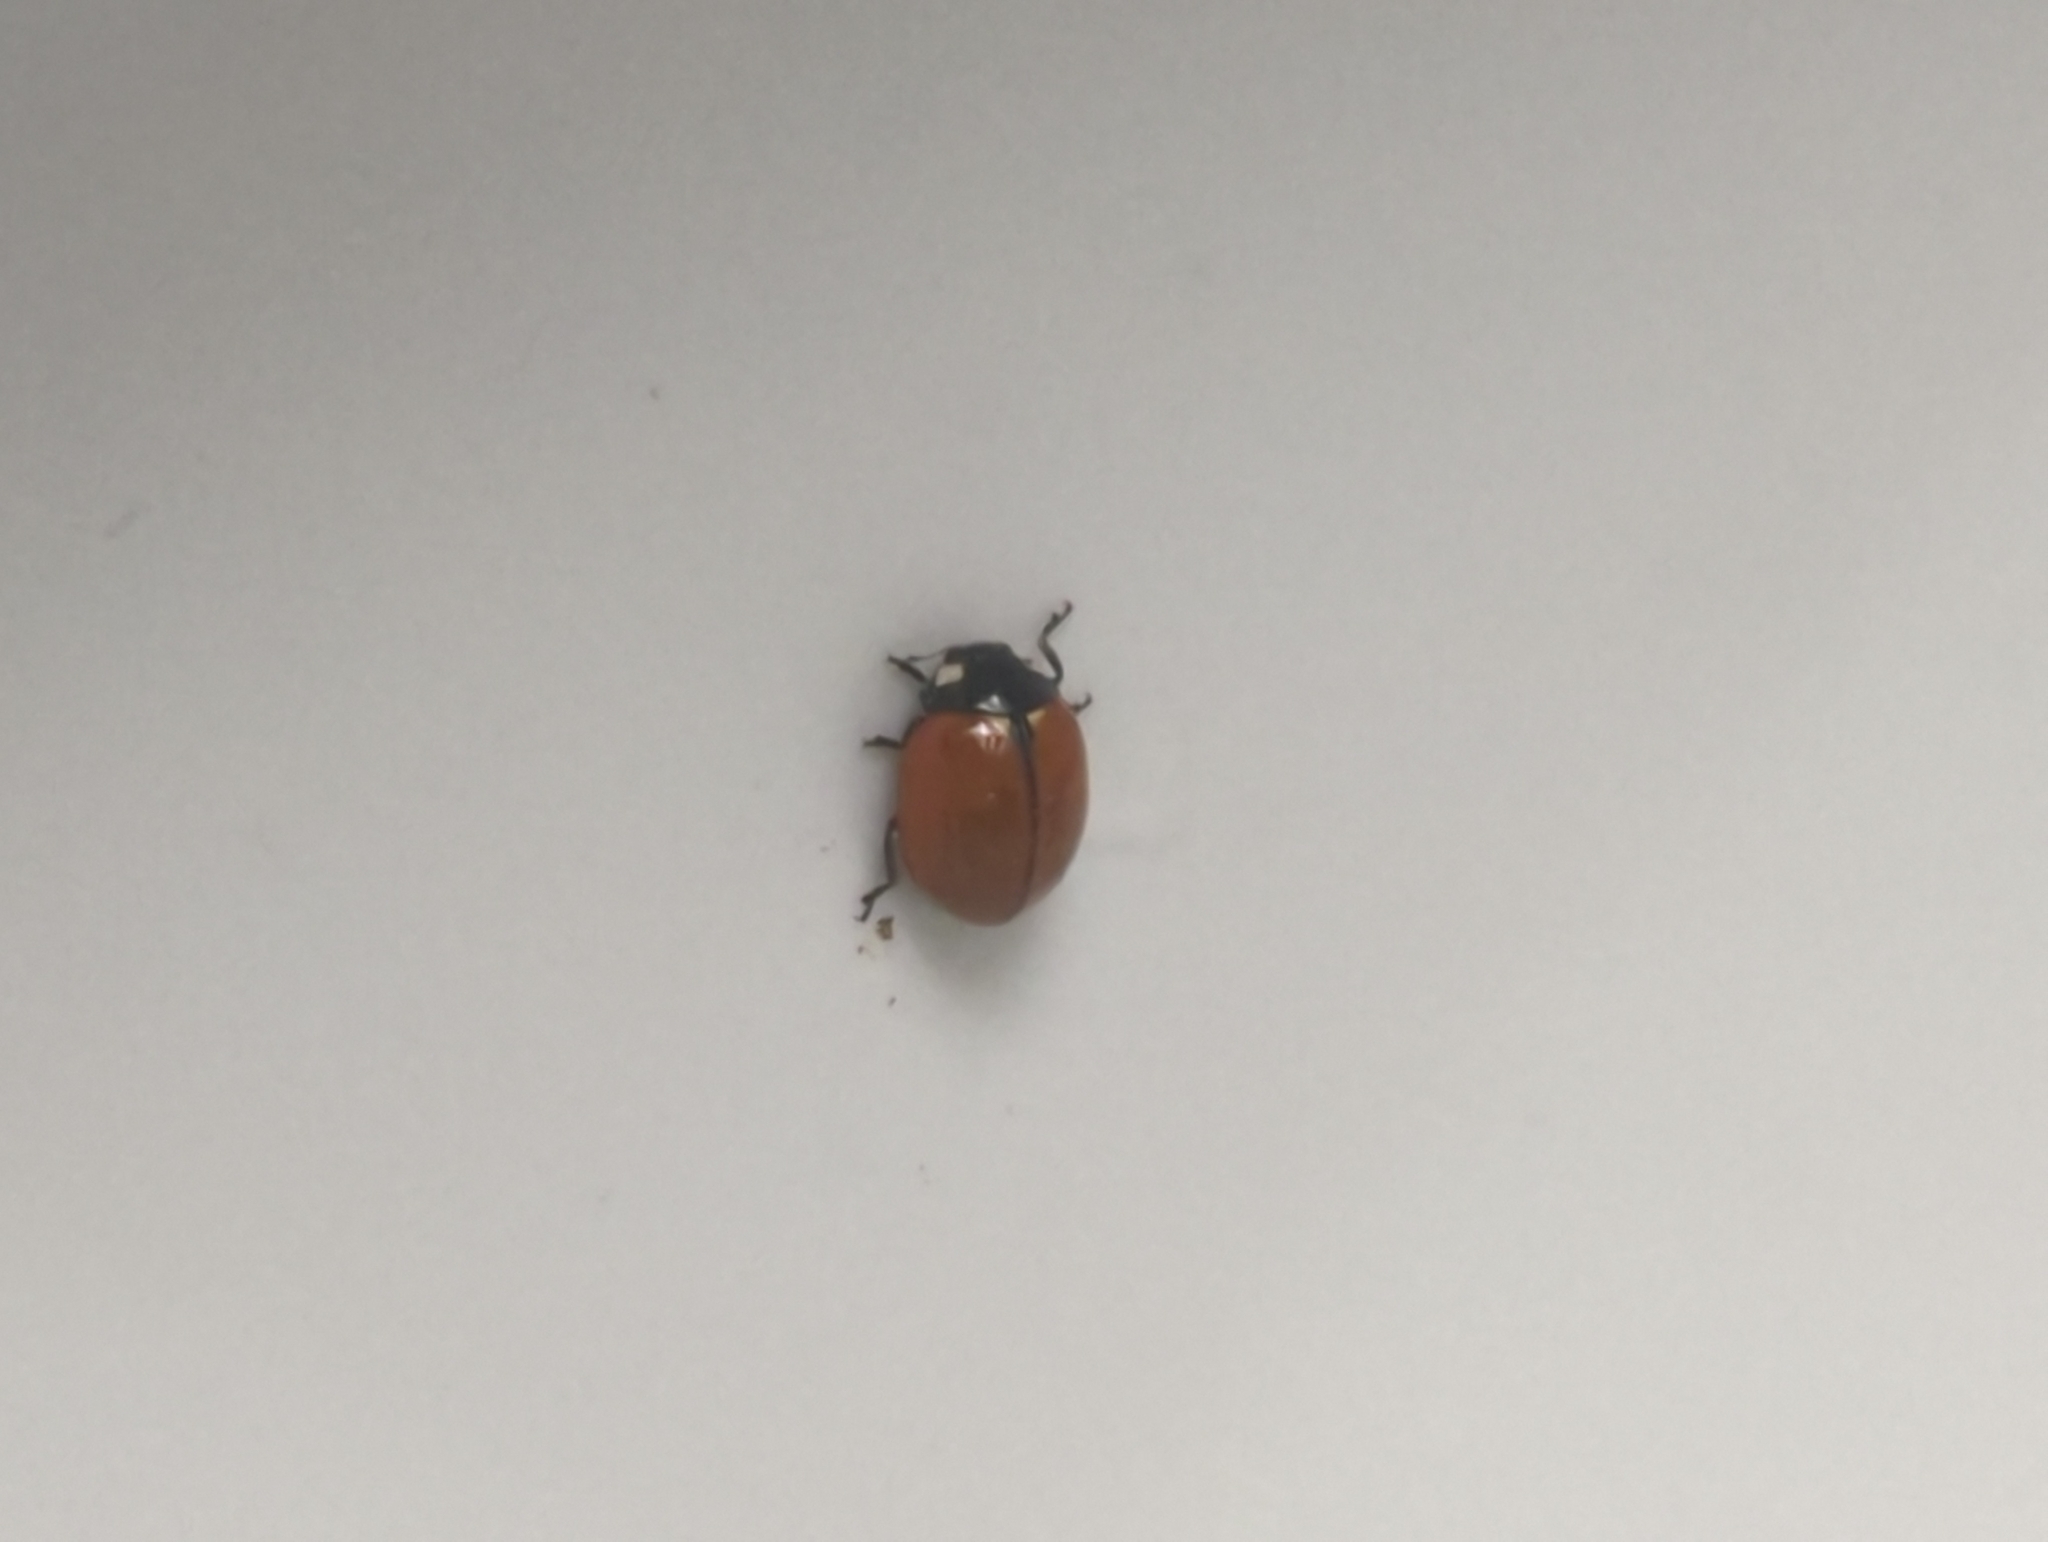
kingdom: Animalia
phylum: Arthropoda
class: Insecta
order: Coleoptera
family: Coccinellidae
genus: Coccinella
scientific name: Coccinella californica
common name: Lady beetle
